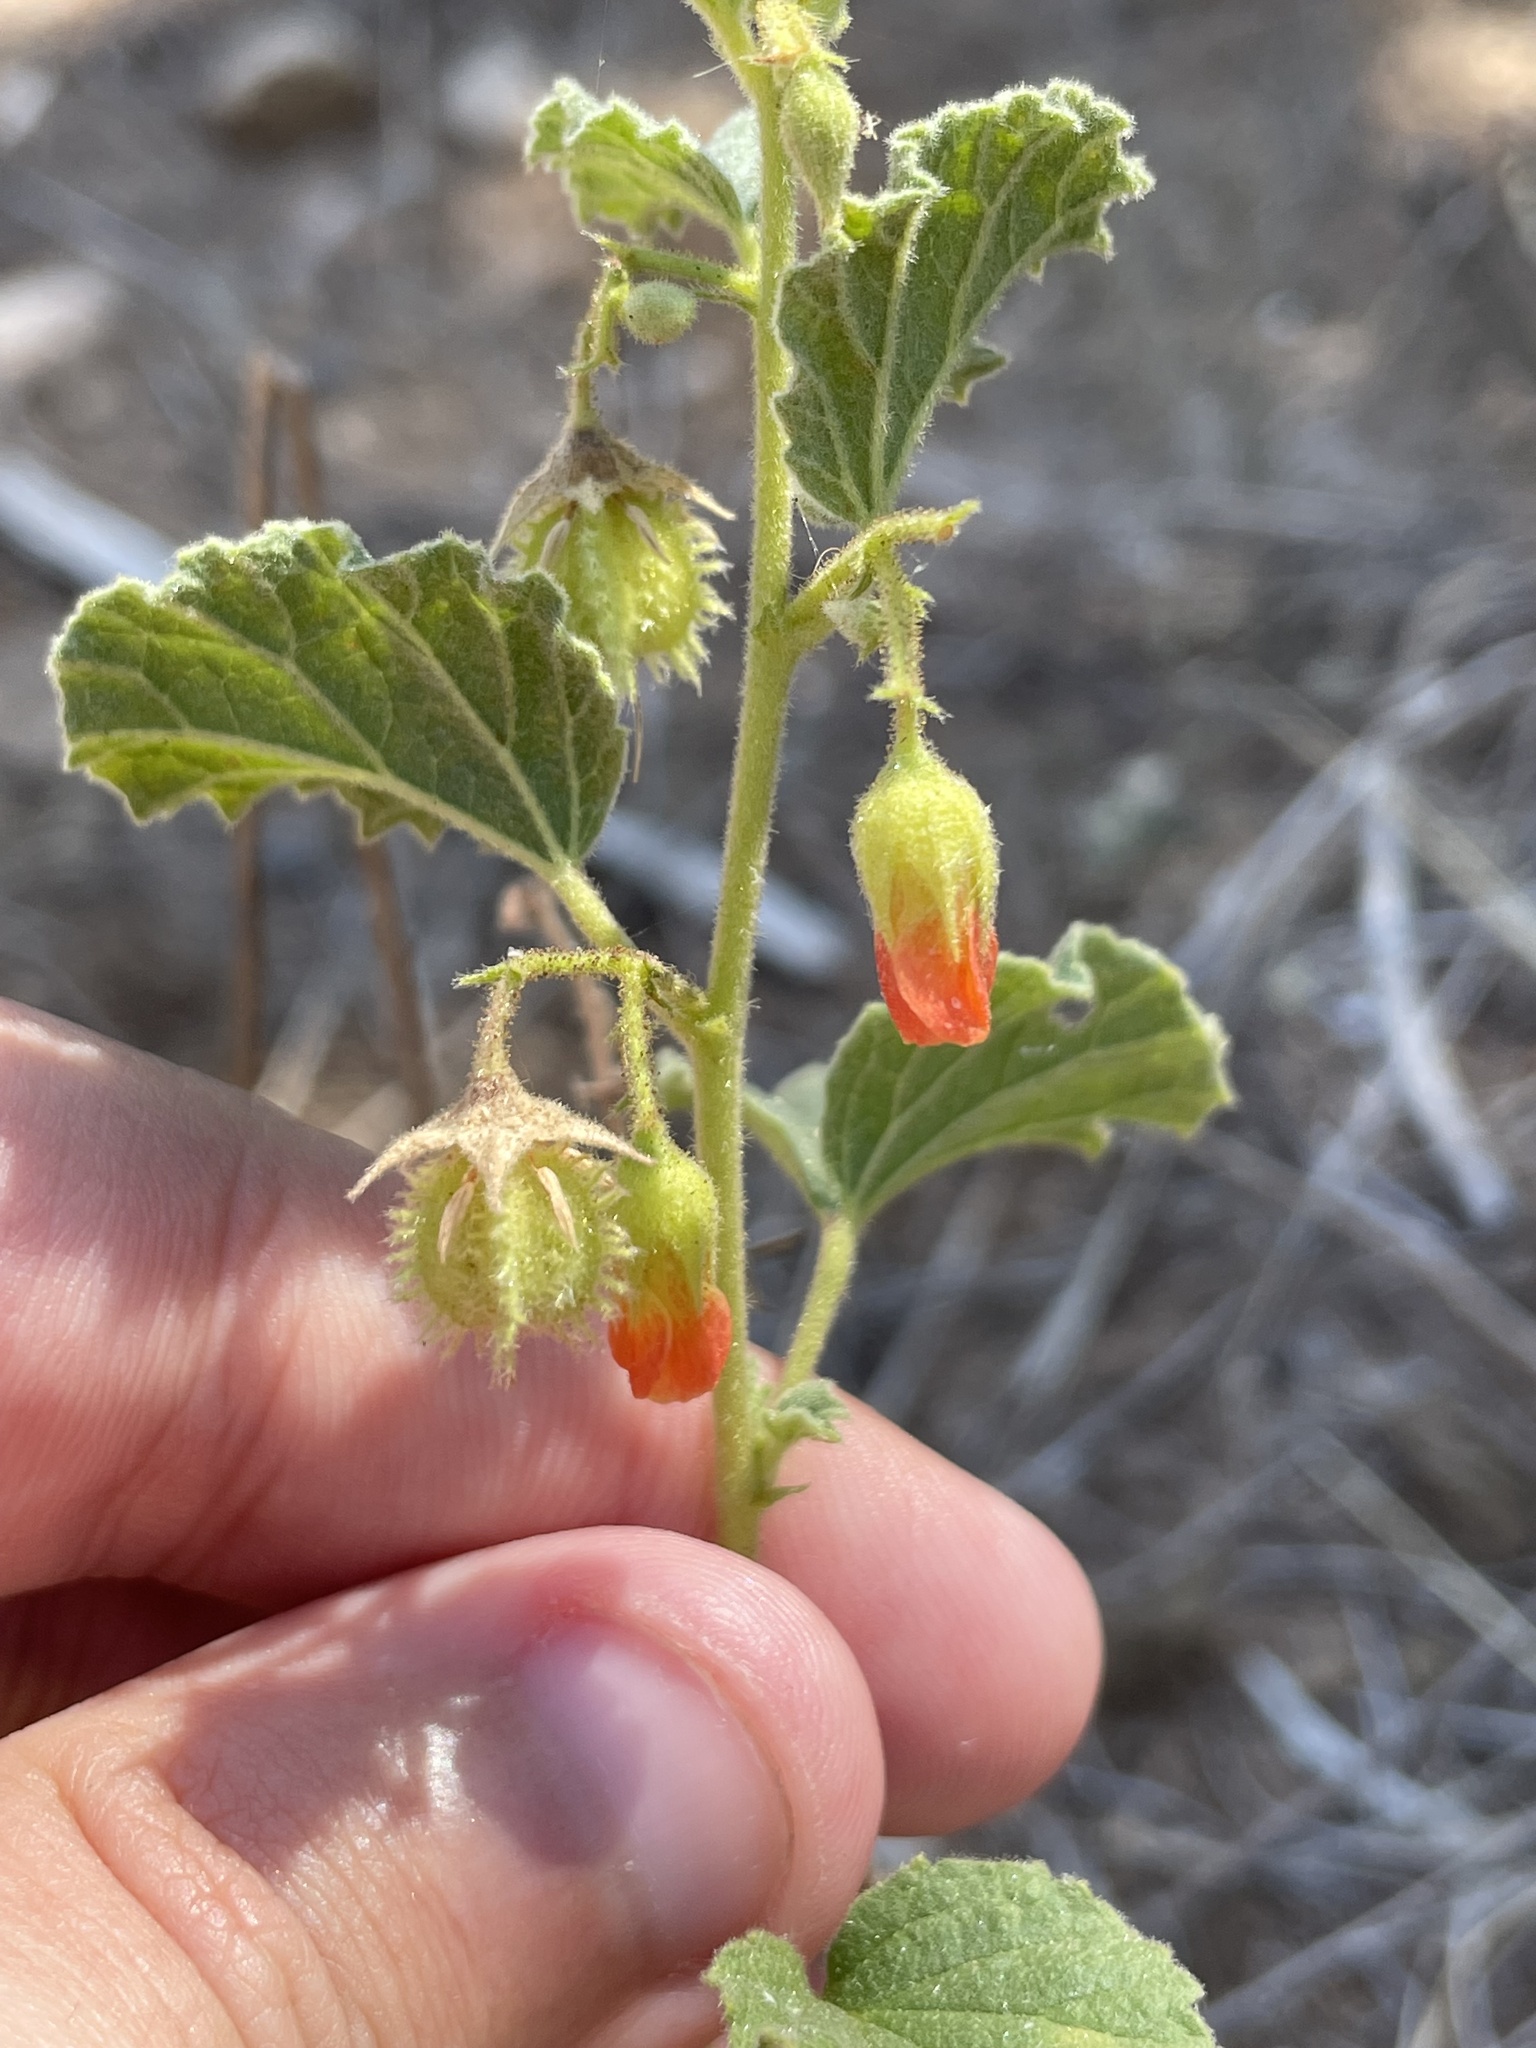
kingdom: Plantae
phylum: Tracheophyta
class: Magnoliopsida
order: Malvales
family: Malvaceae
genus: Hermannia
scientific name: Hermannia texana
